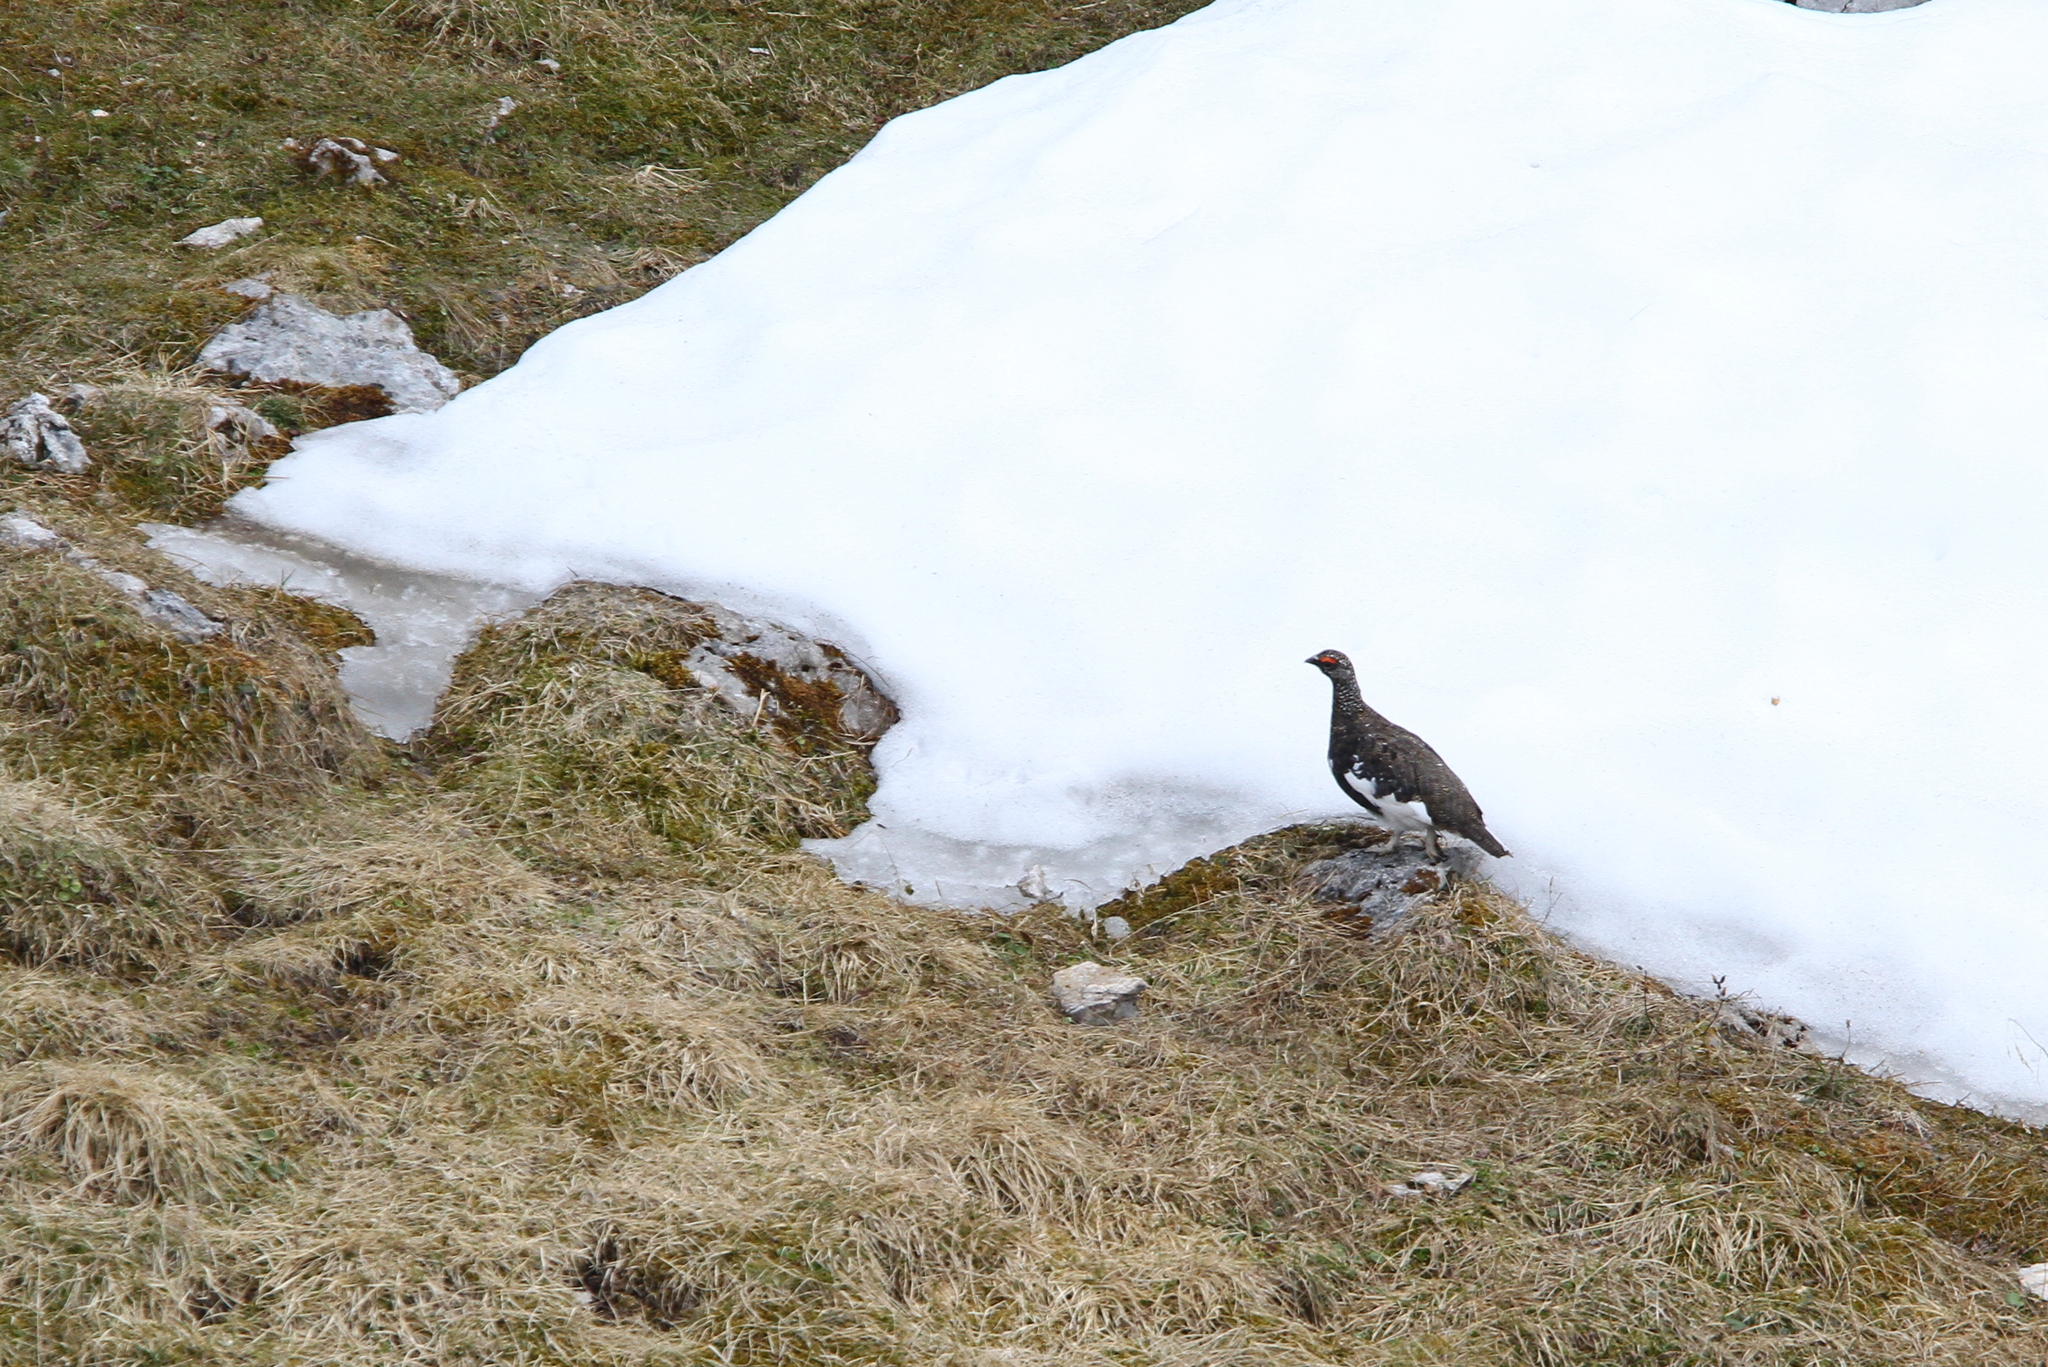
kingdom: Animalia
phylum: Chordata
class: Aves
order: Galliformes
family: Phasianidae
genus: Lagopus
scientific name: Lagopus muta
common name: Rock ptarmigan
